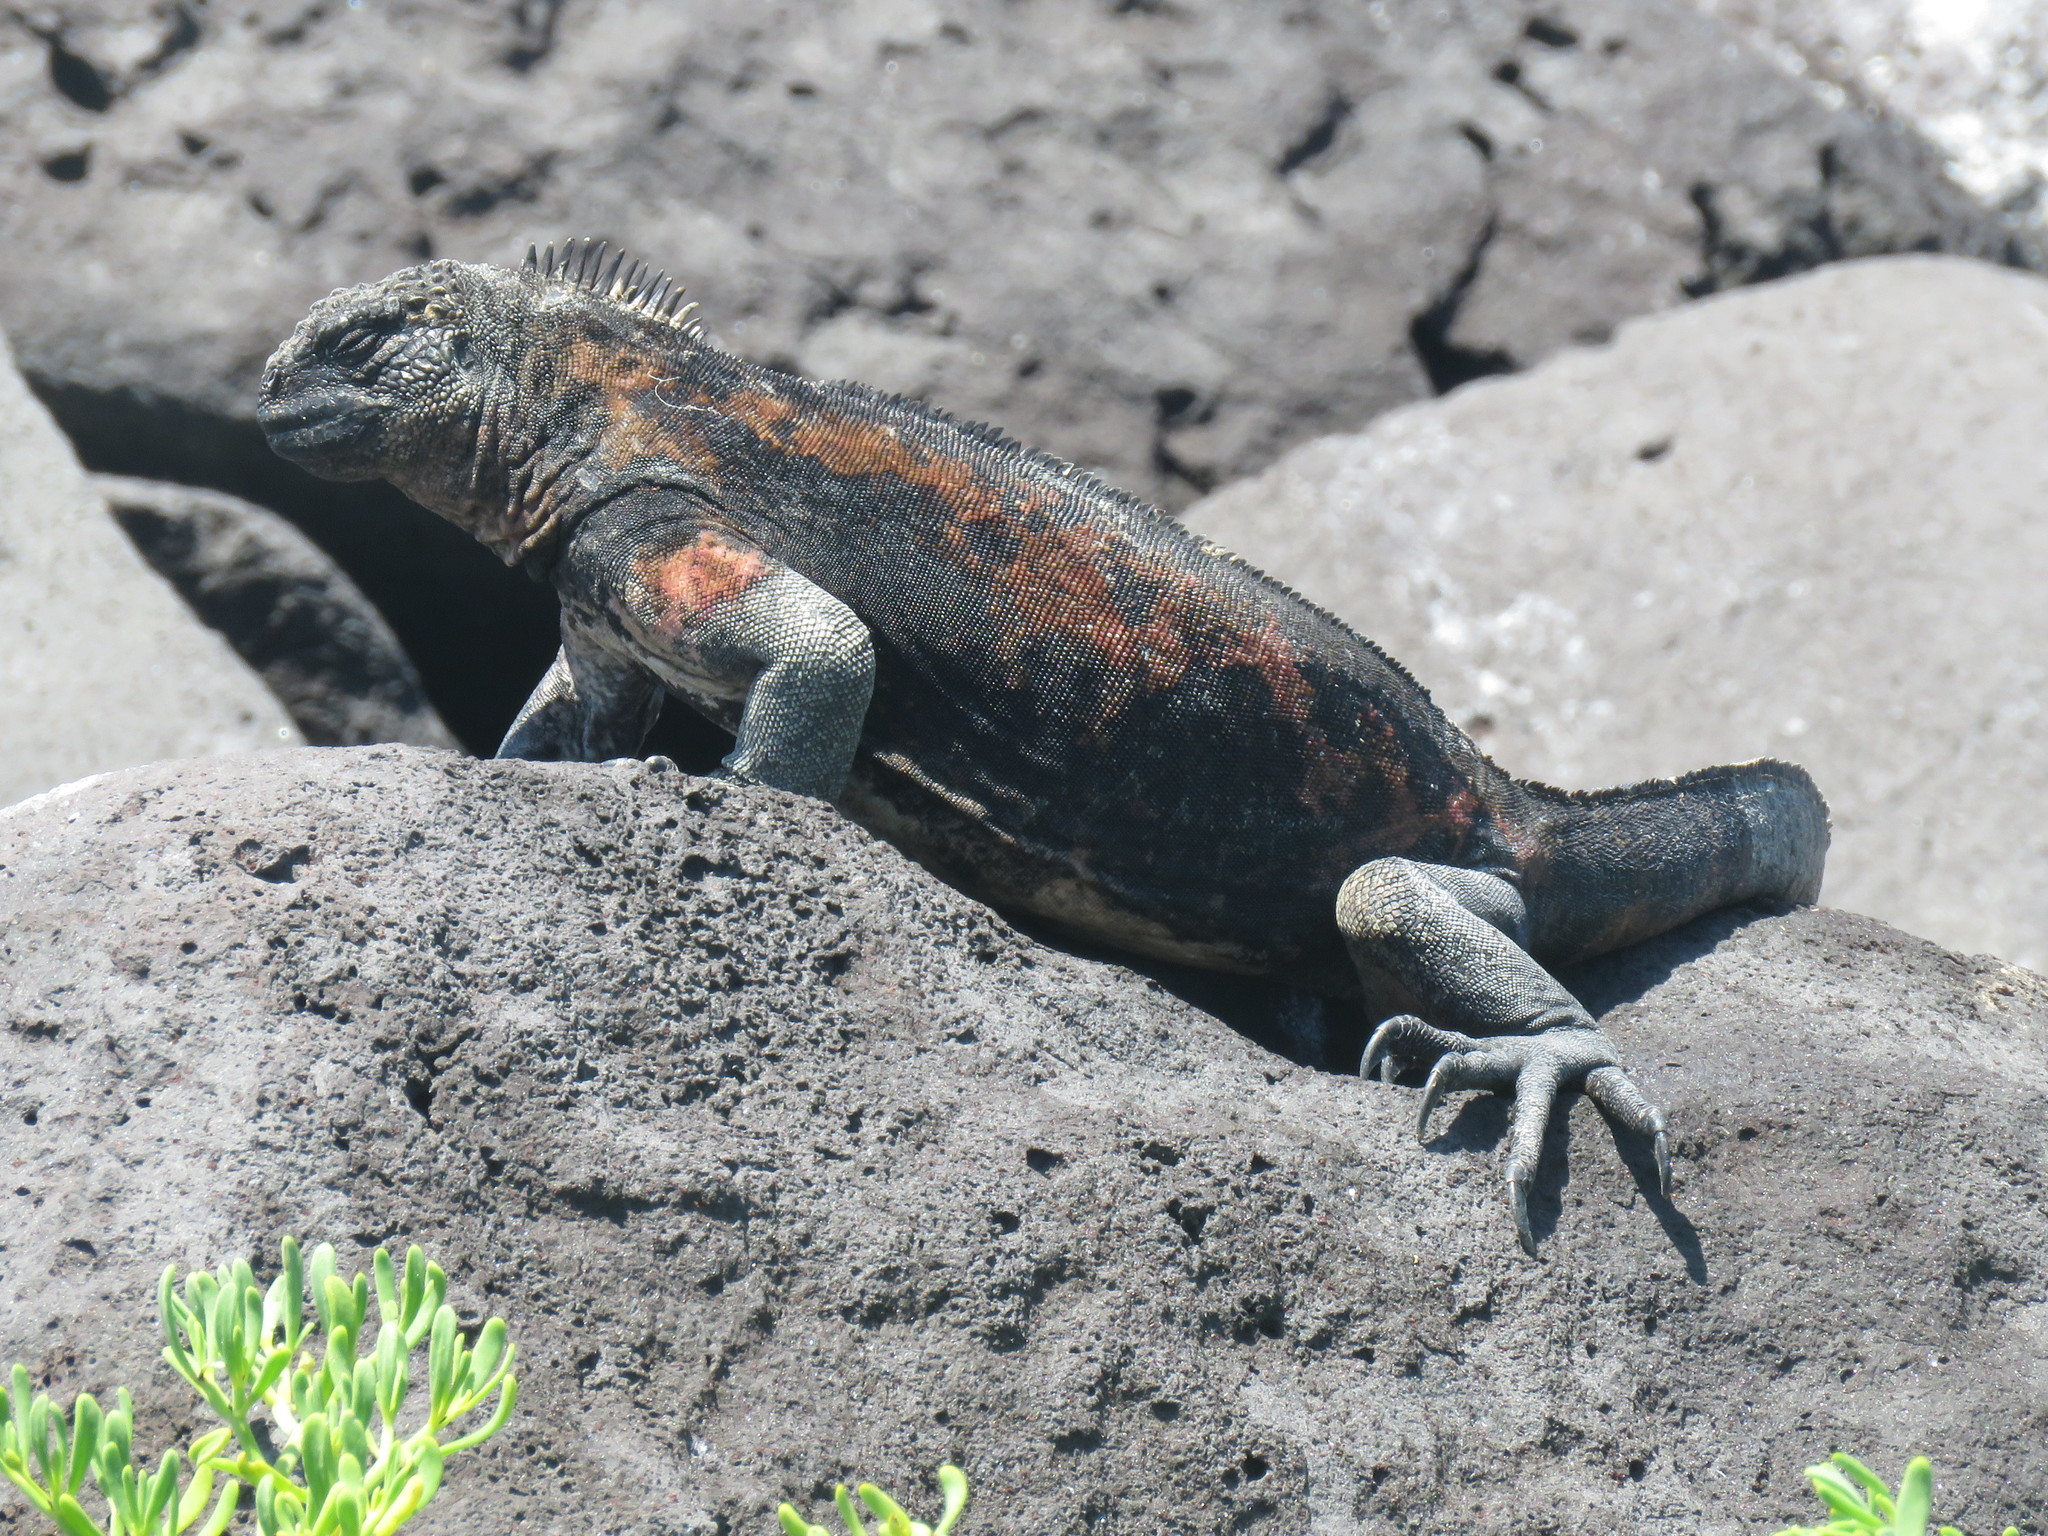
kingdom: Animalia
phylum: Chordata
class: Squamata
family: Iguanidae
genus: Amblyrhynchus
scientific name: Amblyrhynchus cristatus
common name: Marine iguana
